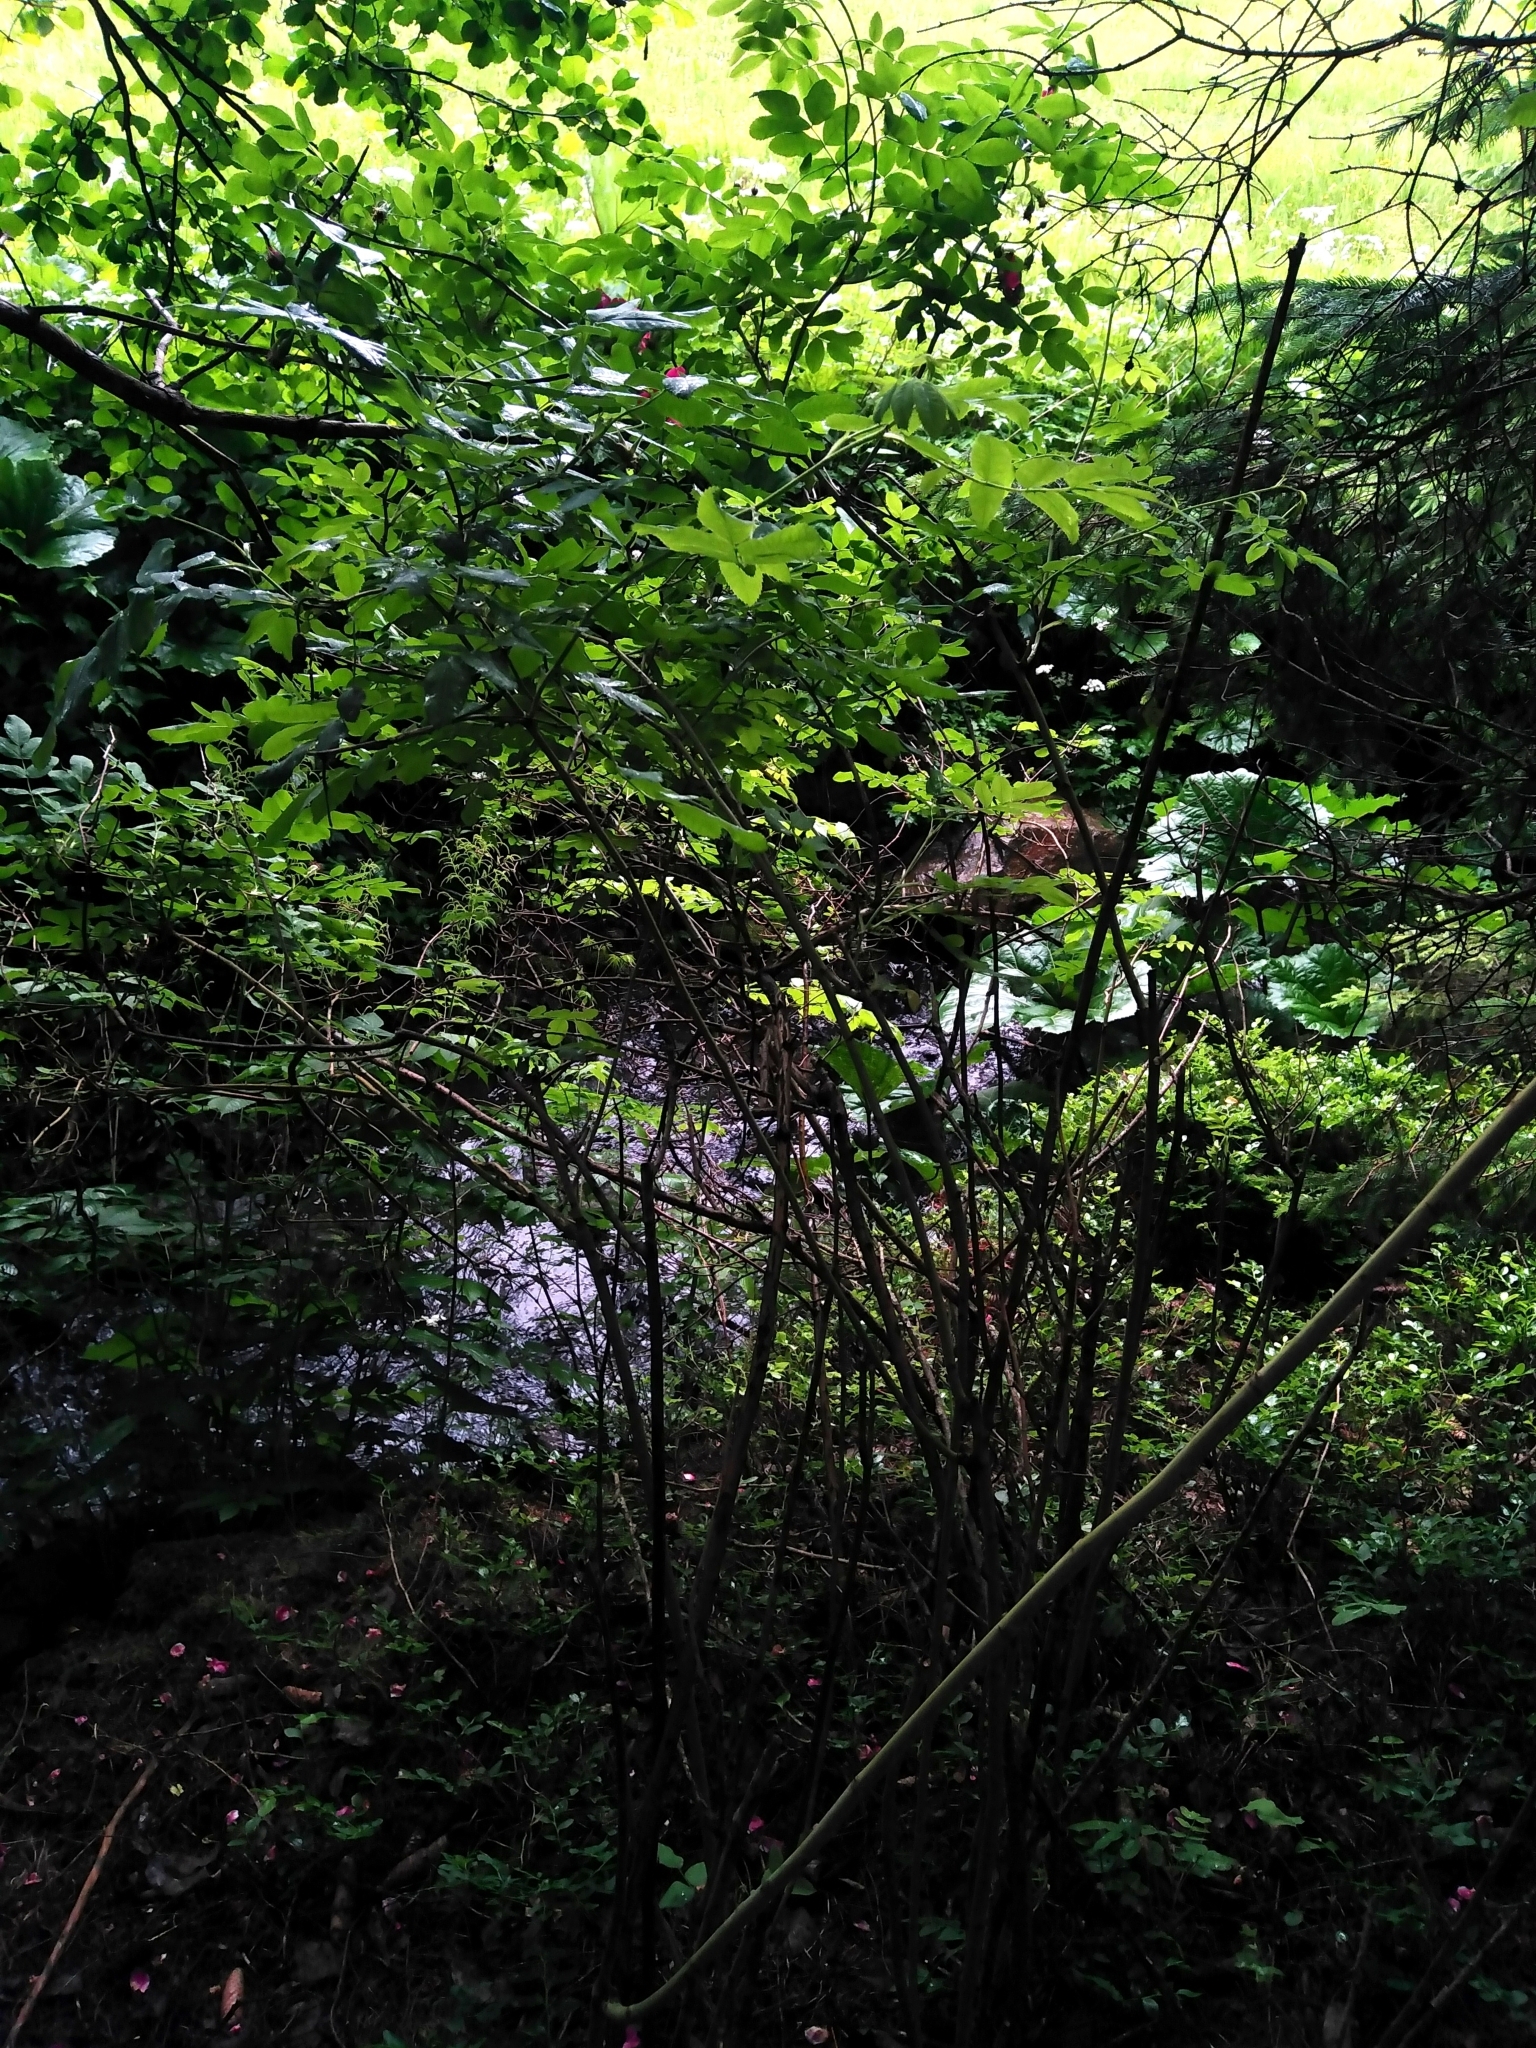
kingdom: Plantae
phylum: Tracheophyta
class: Magnoliopsida
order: Rosales
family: Rosaceae
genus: Rosa
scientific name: Rosa pendulina
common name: Alpine rose
